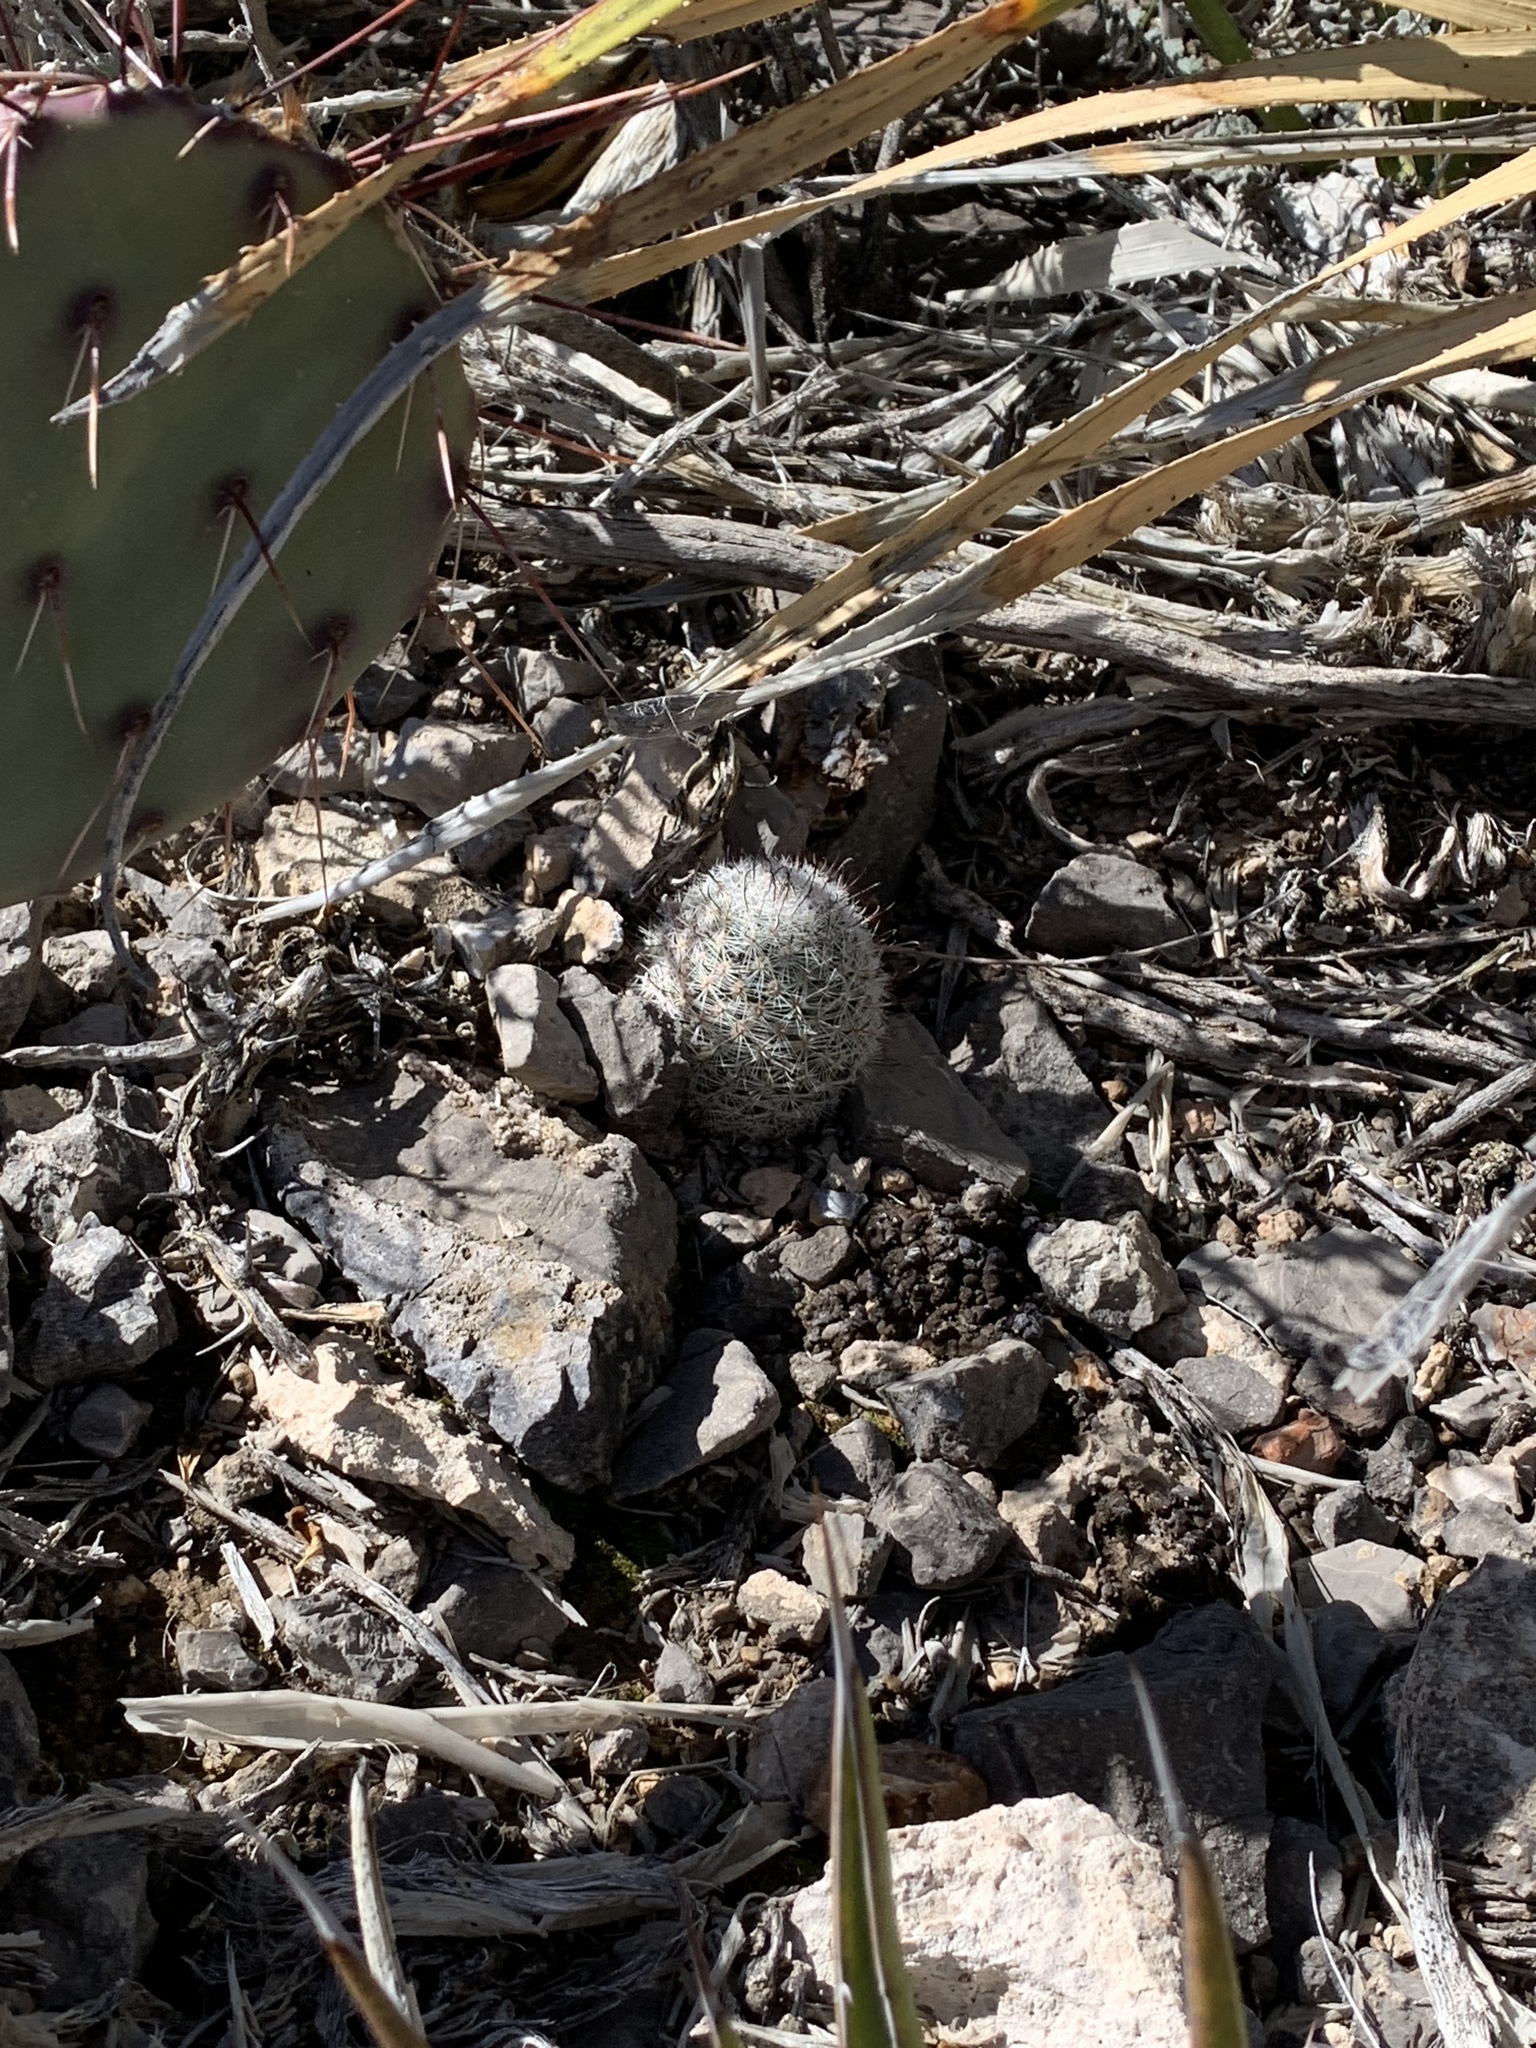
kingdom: Plantae
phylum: Tracheophyta
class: Magnoliopsida
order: Caryophyllales
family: Cactaceae
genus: Cochemiea
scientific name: Cochemiea grahamii
